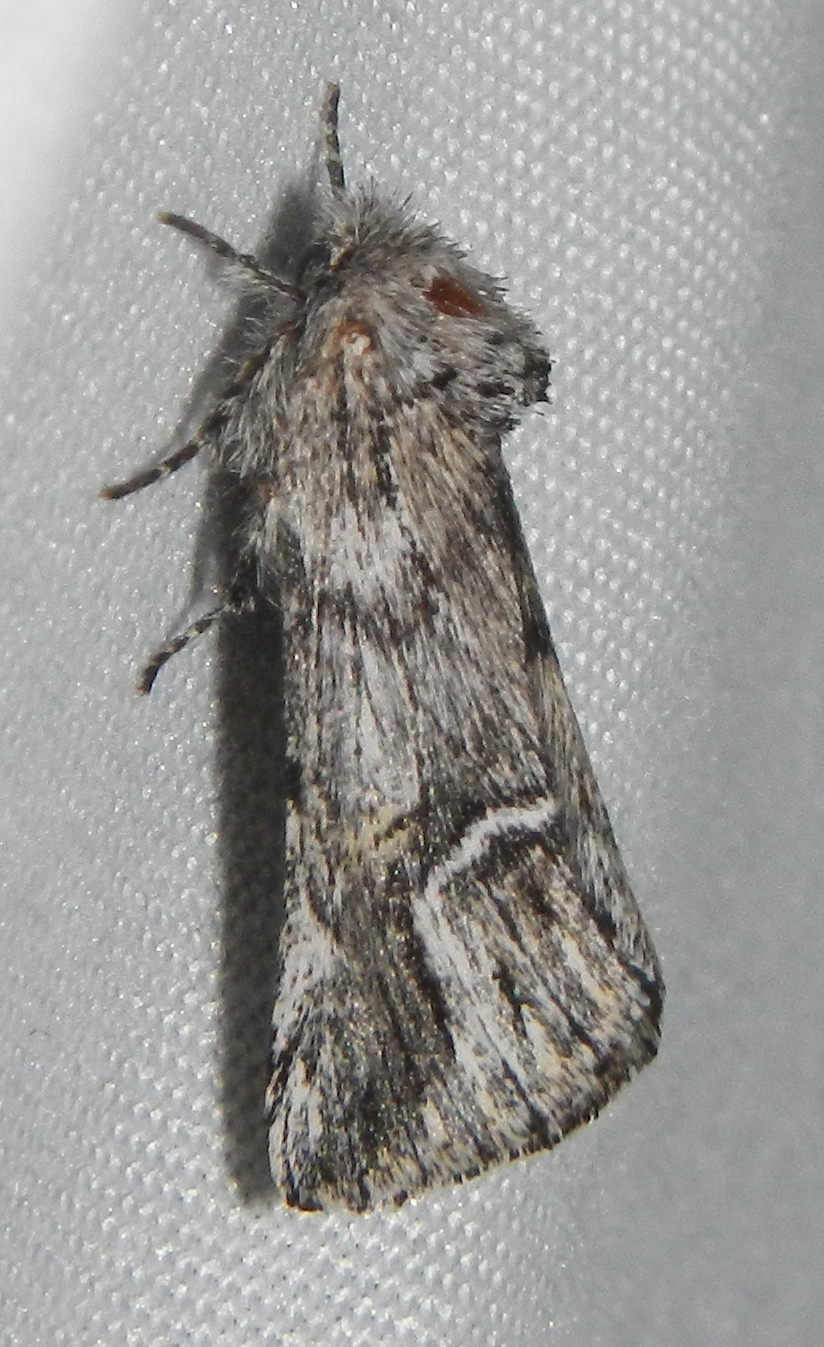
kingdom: Animalia
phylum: Arthropoda
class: Insecta
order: Lepidoptera
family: Notodontidae
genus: Ursia
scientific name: Ursia noctuiformis
